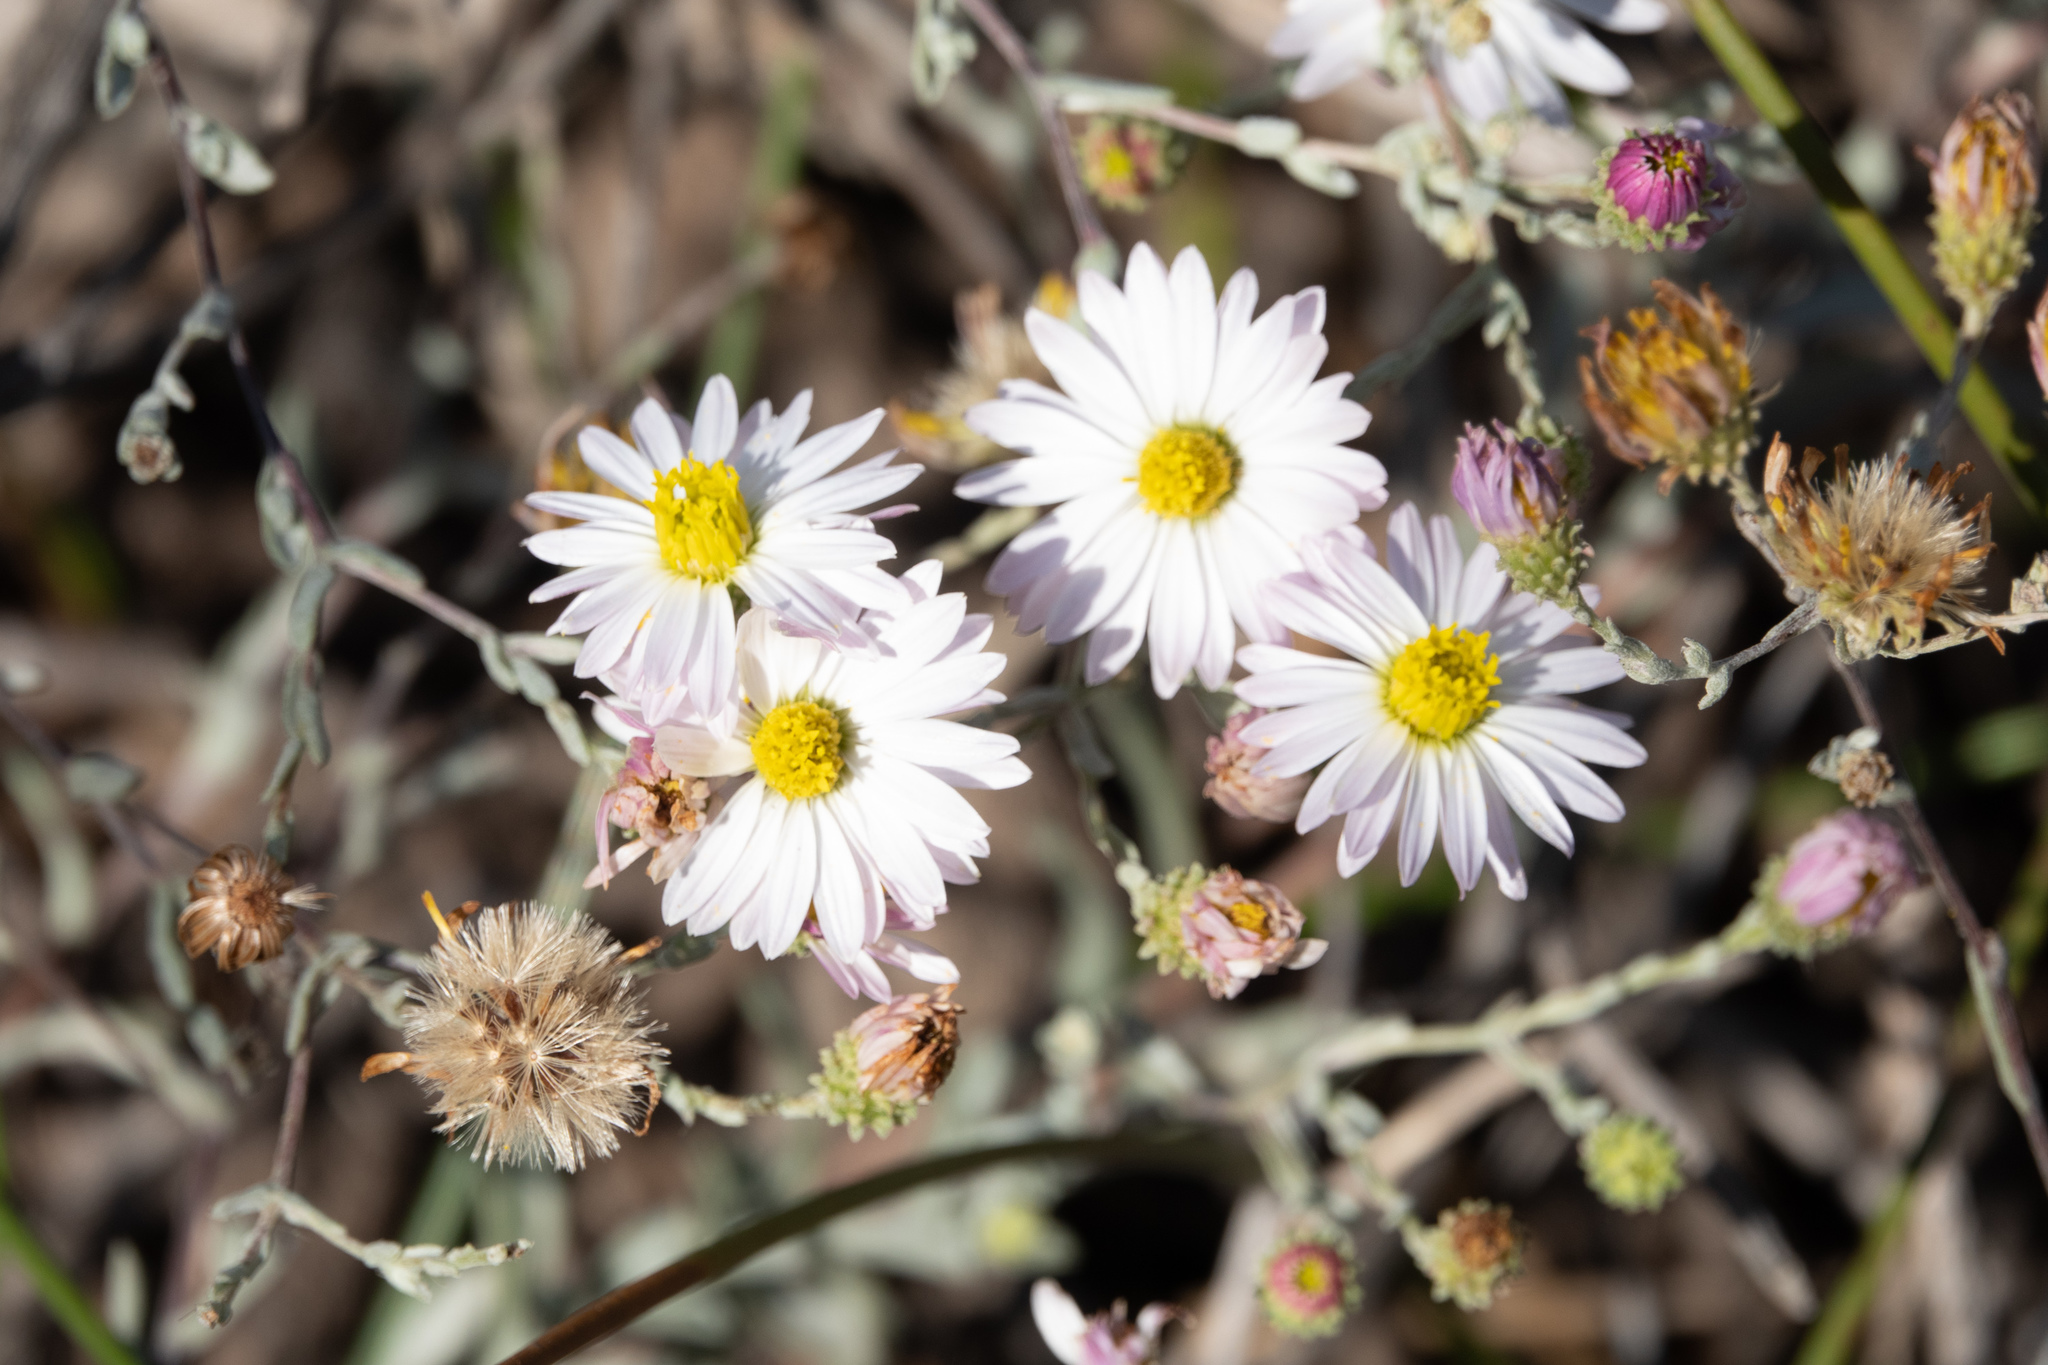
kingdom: Plantae
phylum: Tracheophyta
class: Magnoliopsida
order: Asterales
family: Asteraceae
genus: Corethrogyne
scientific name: Corethrogyne filaginifolia
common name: Sand-aster
